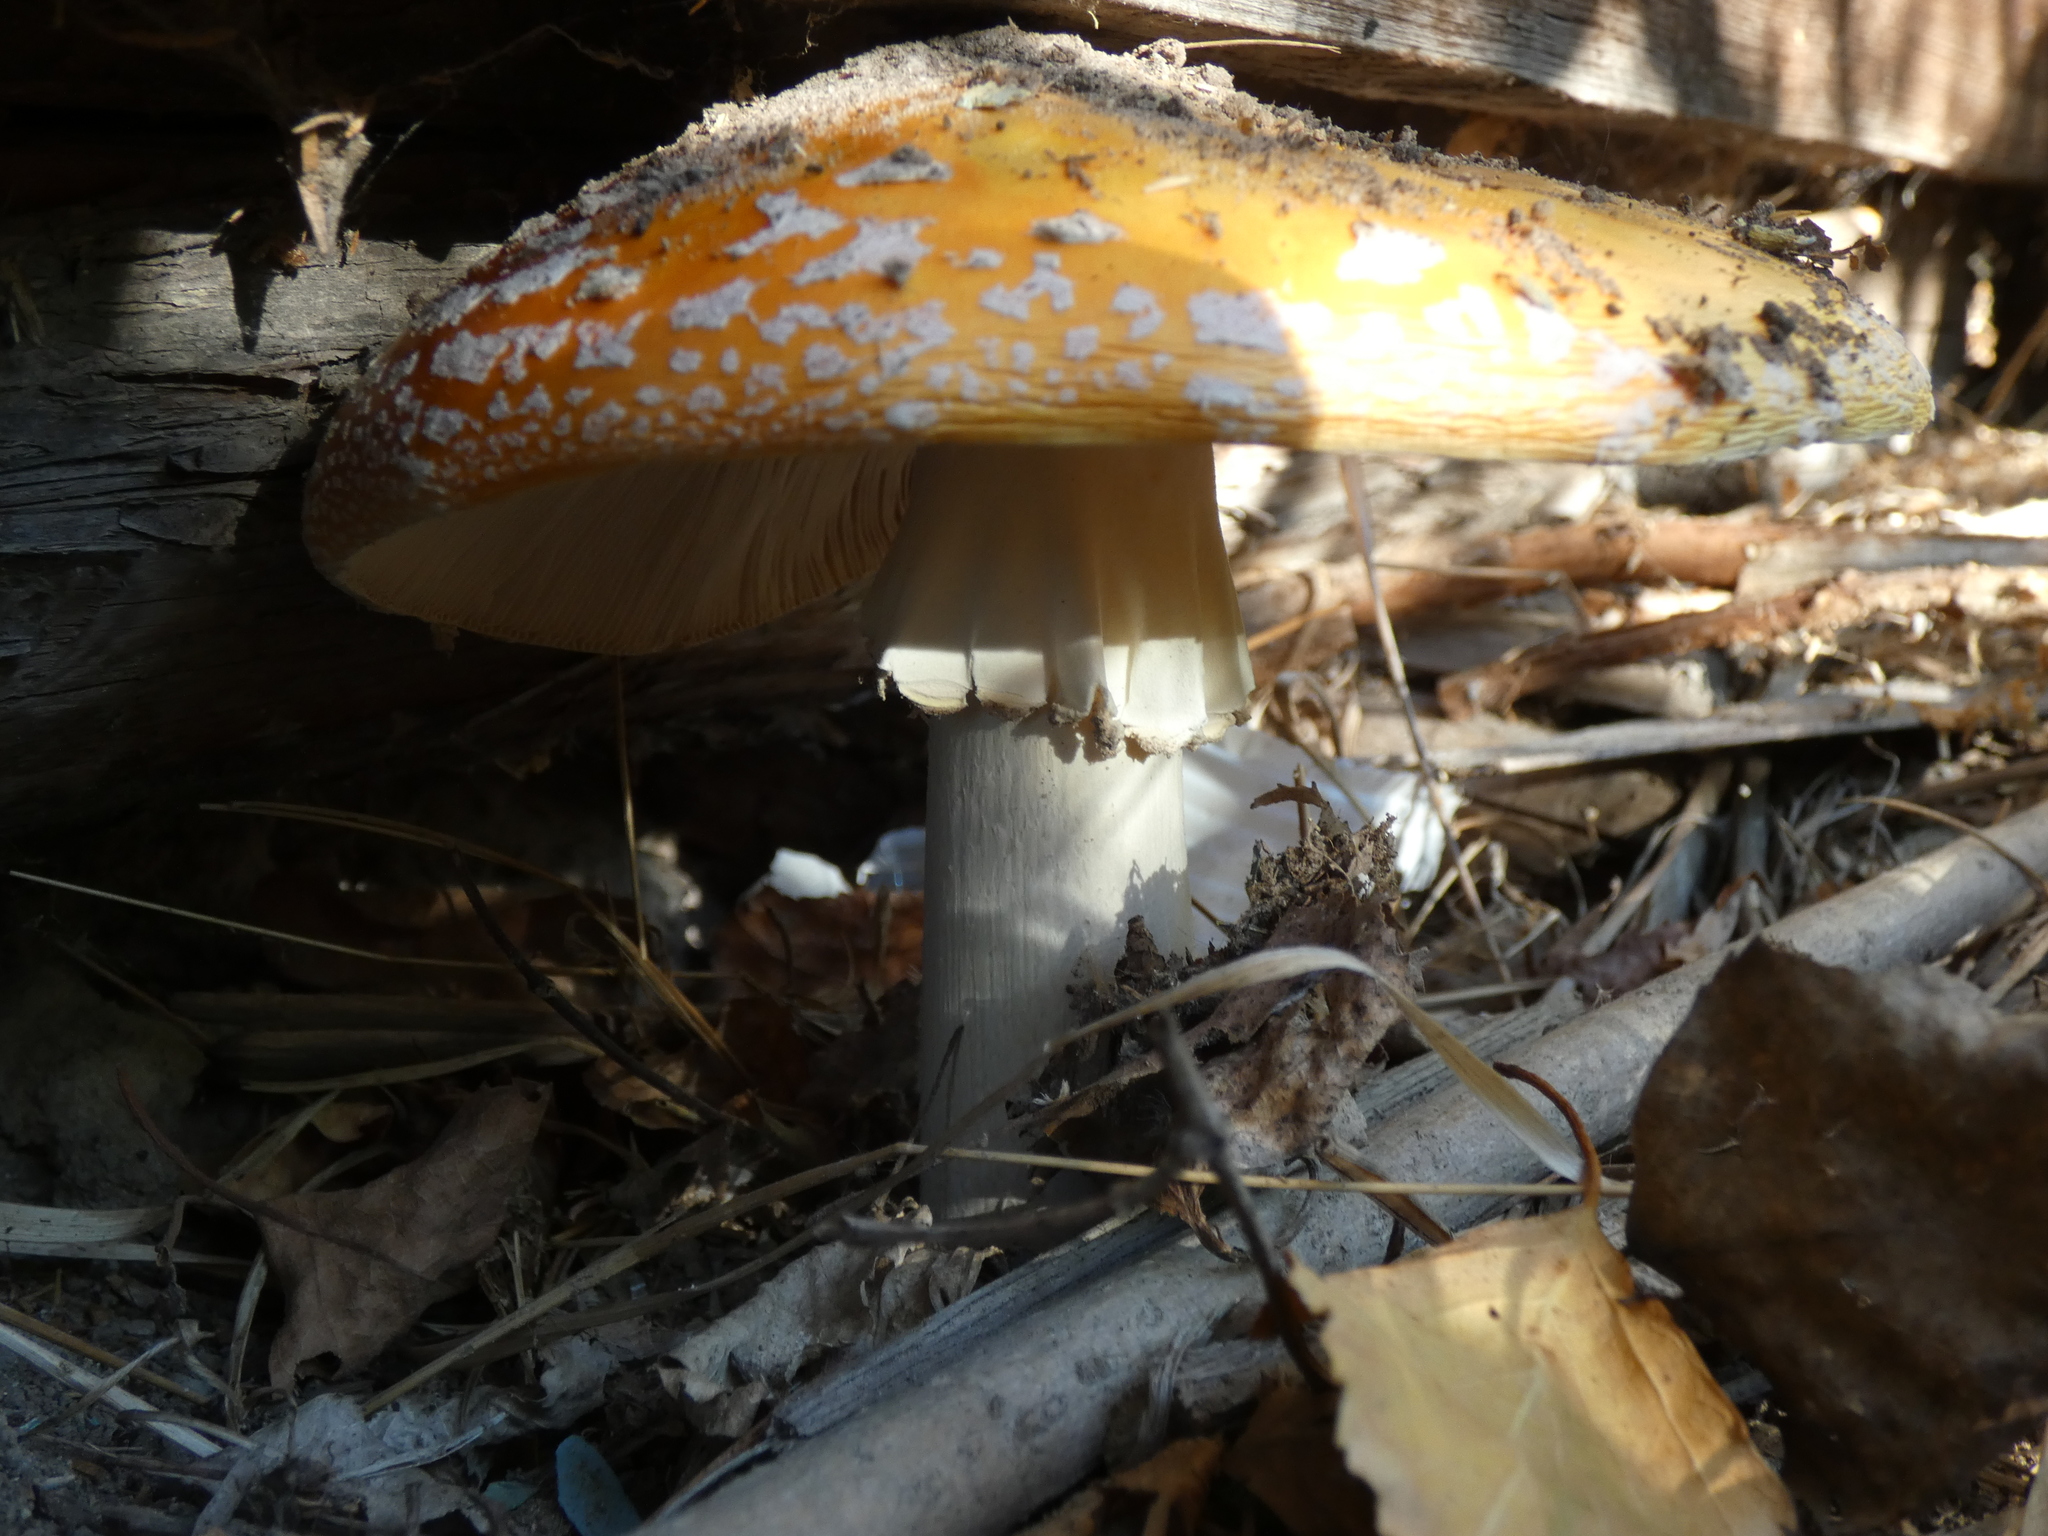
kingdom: Fungi
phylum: Basidiomycota
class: Agaricomycetes
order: Agaricales
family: Amanitaceae
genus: Amanita
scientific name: Amanita muscaria
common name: Fly agaric
